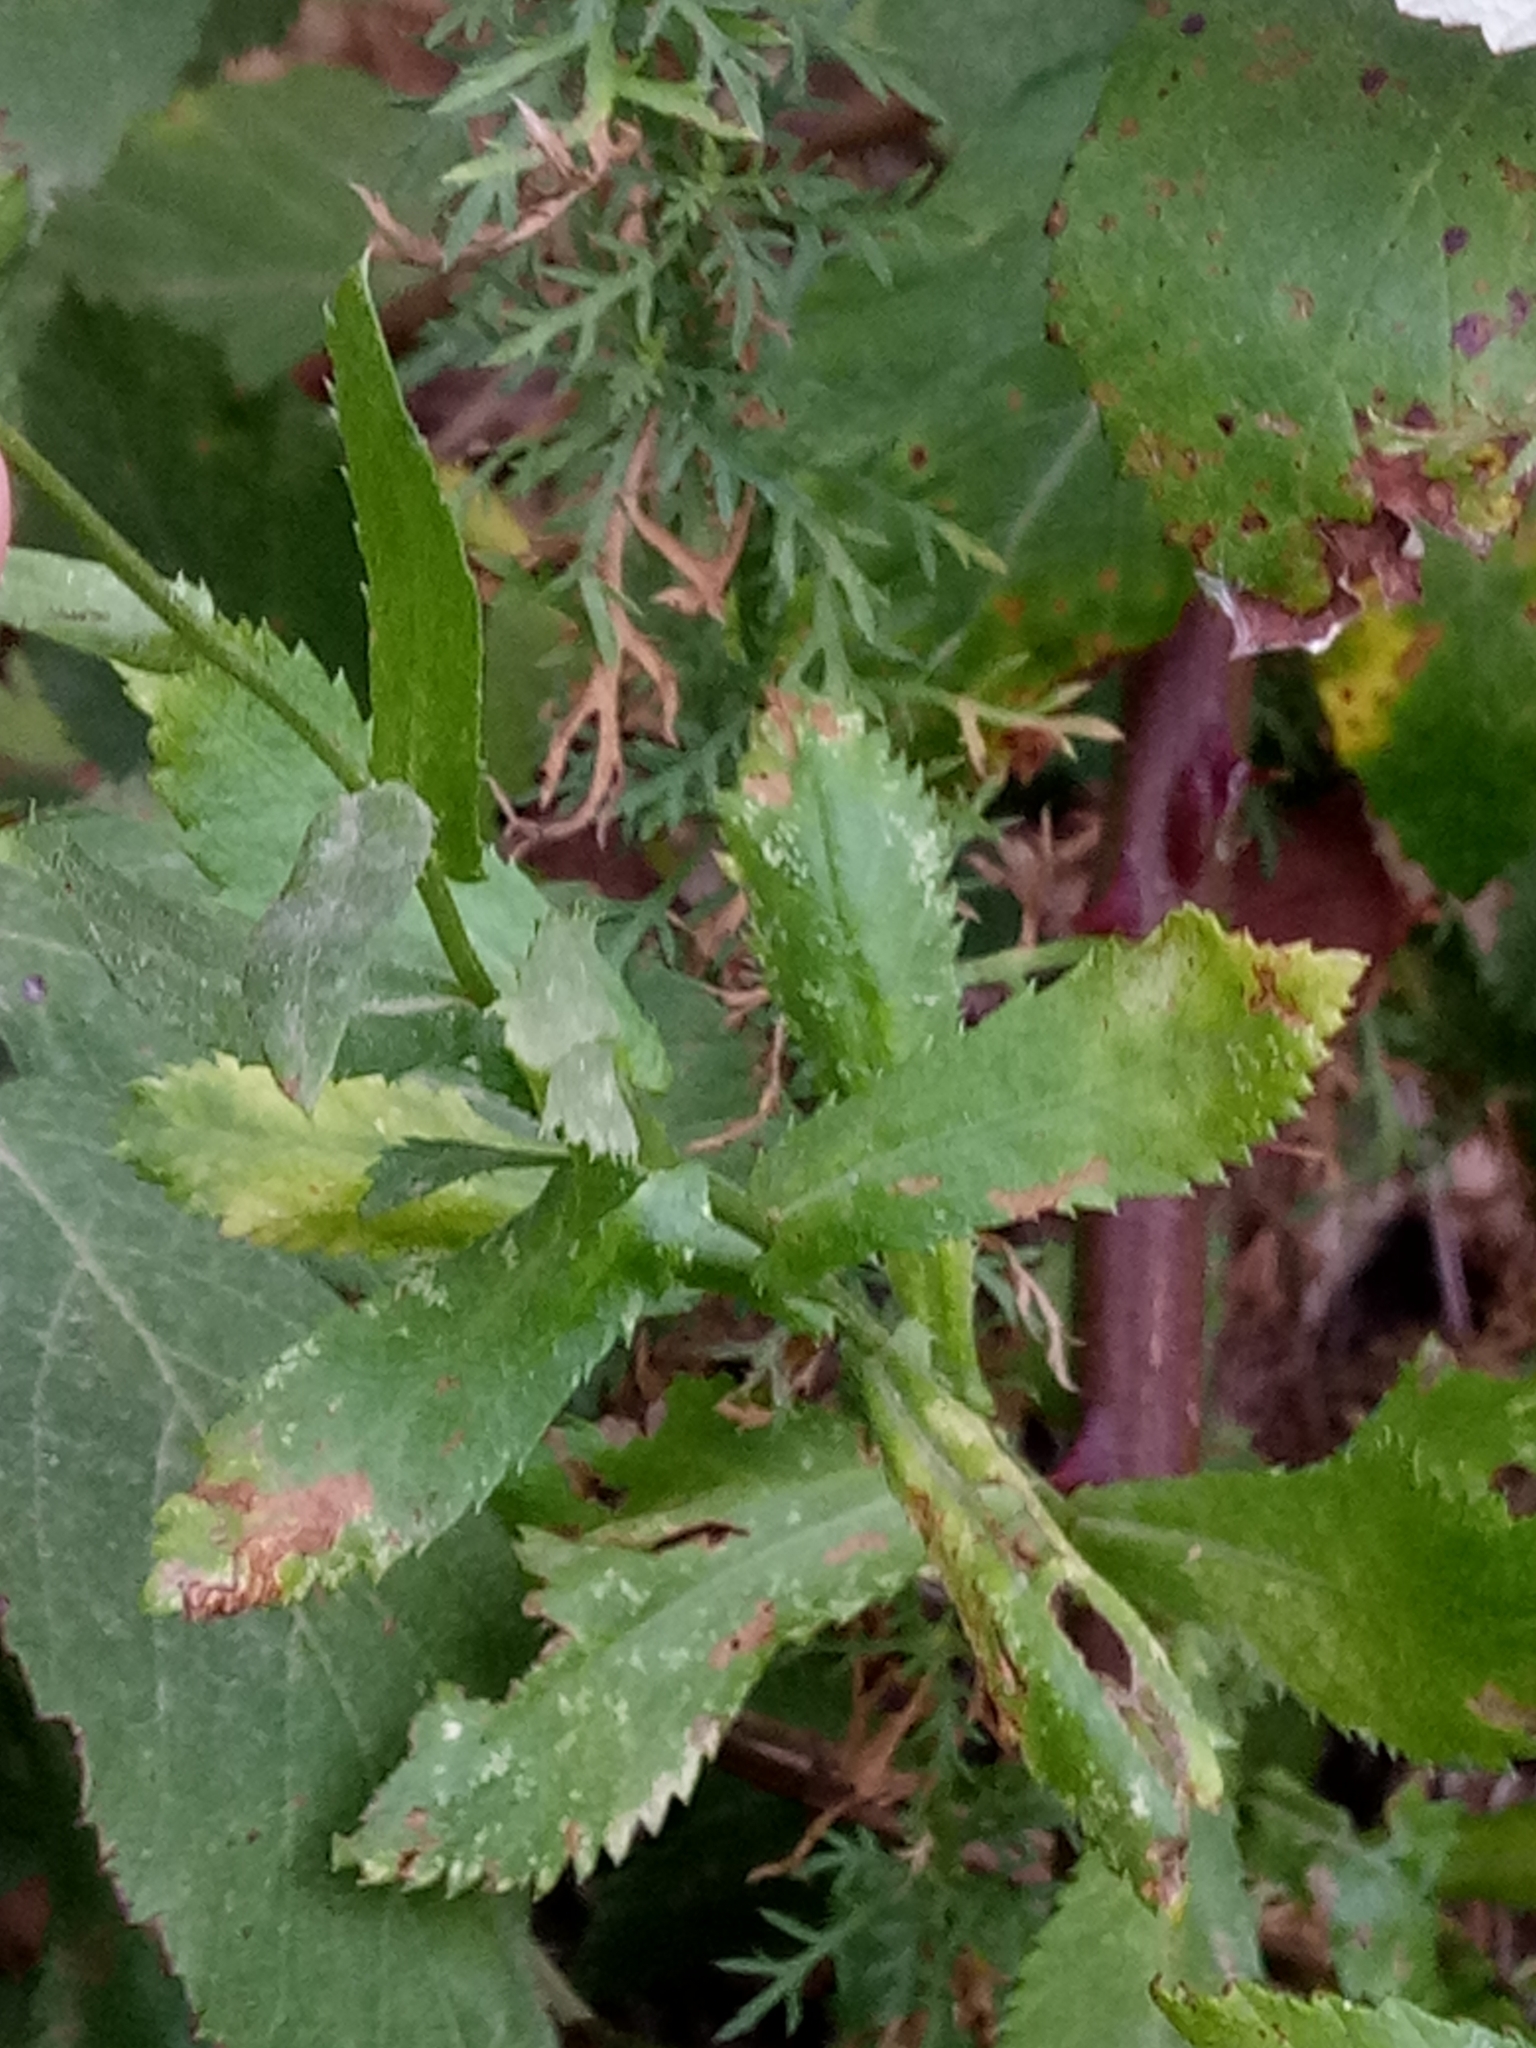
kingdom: Plantae
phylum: Tracheophyta
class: Magnoliopsida
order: Asterales
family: Asteraceae
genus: Plagius
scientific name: Plagius maghrebinus
